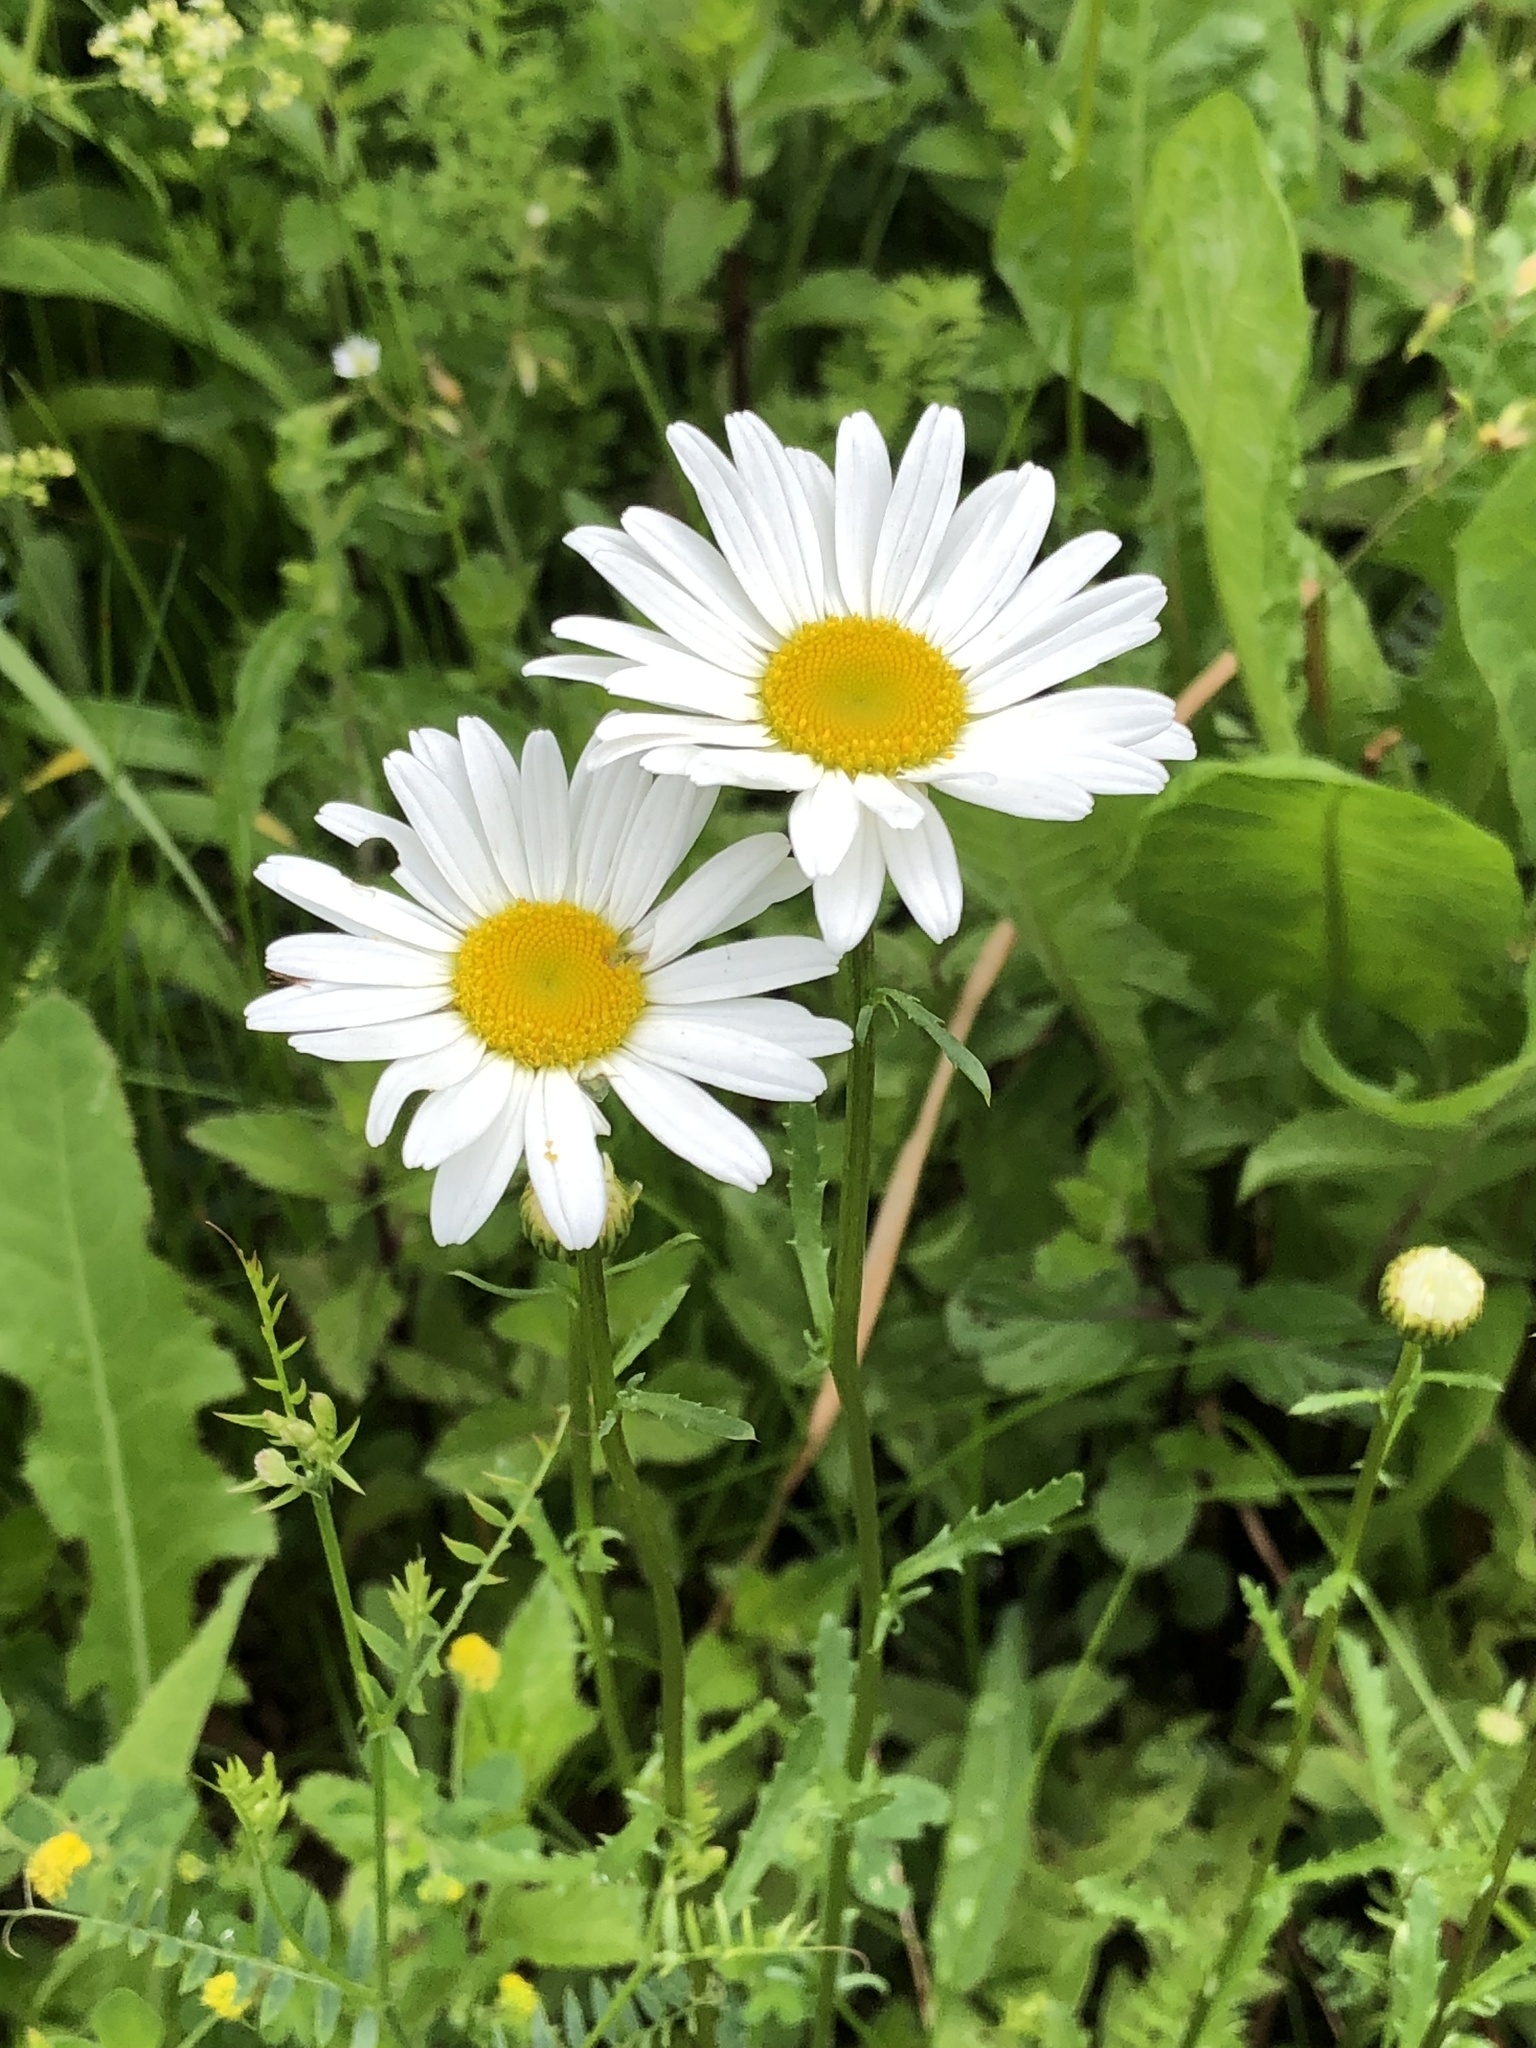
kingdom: Plantae
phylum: Tracheophyta
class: Magnoliopsida
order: Asterales
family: Asteraceae
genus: Leucanthemum
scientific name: Leucanthemum vulgare
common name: Oxeye daisy
